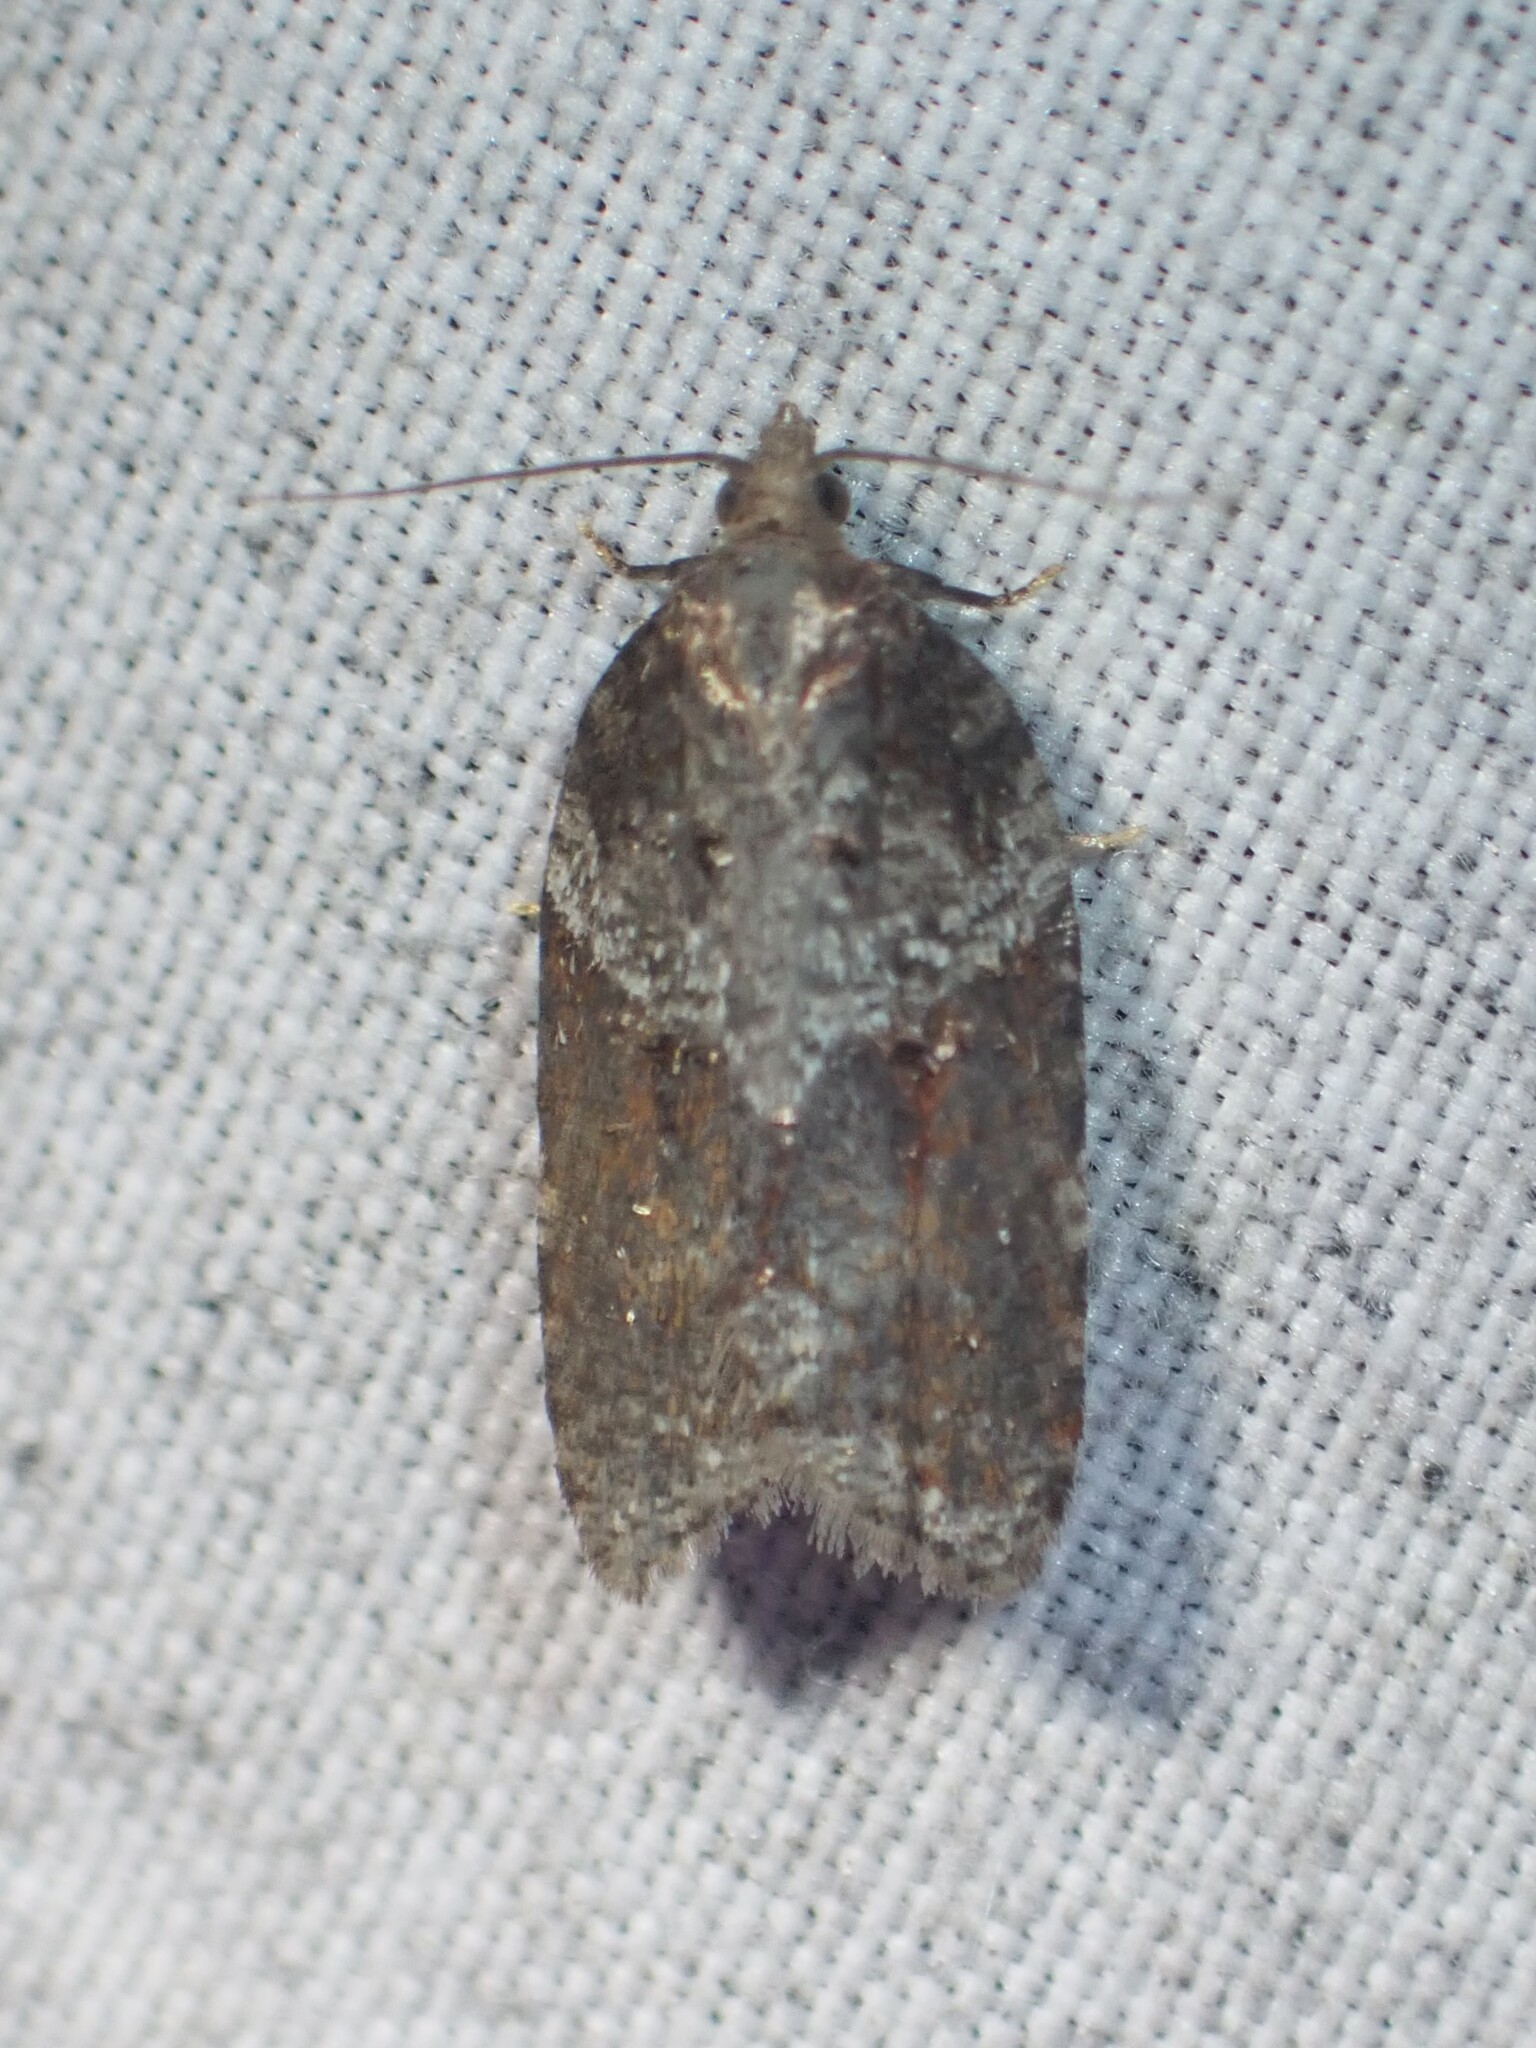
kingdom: Animalia
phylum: Arthropoda
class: Insecta
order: Lepidoptera
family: Tortricidae
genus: Acleris
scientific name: Acleris macdunnoughi
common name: Macdunnough's acleris
